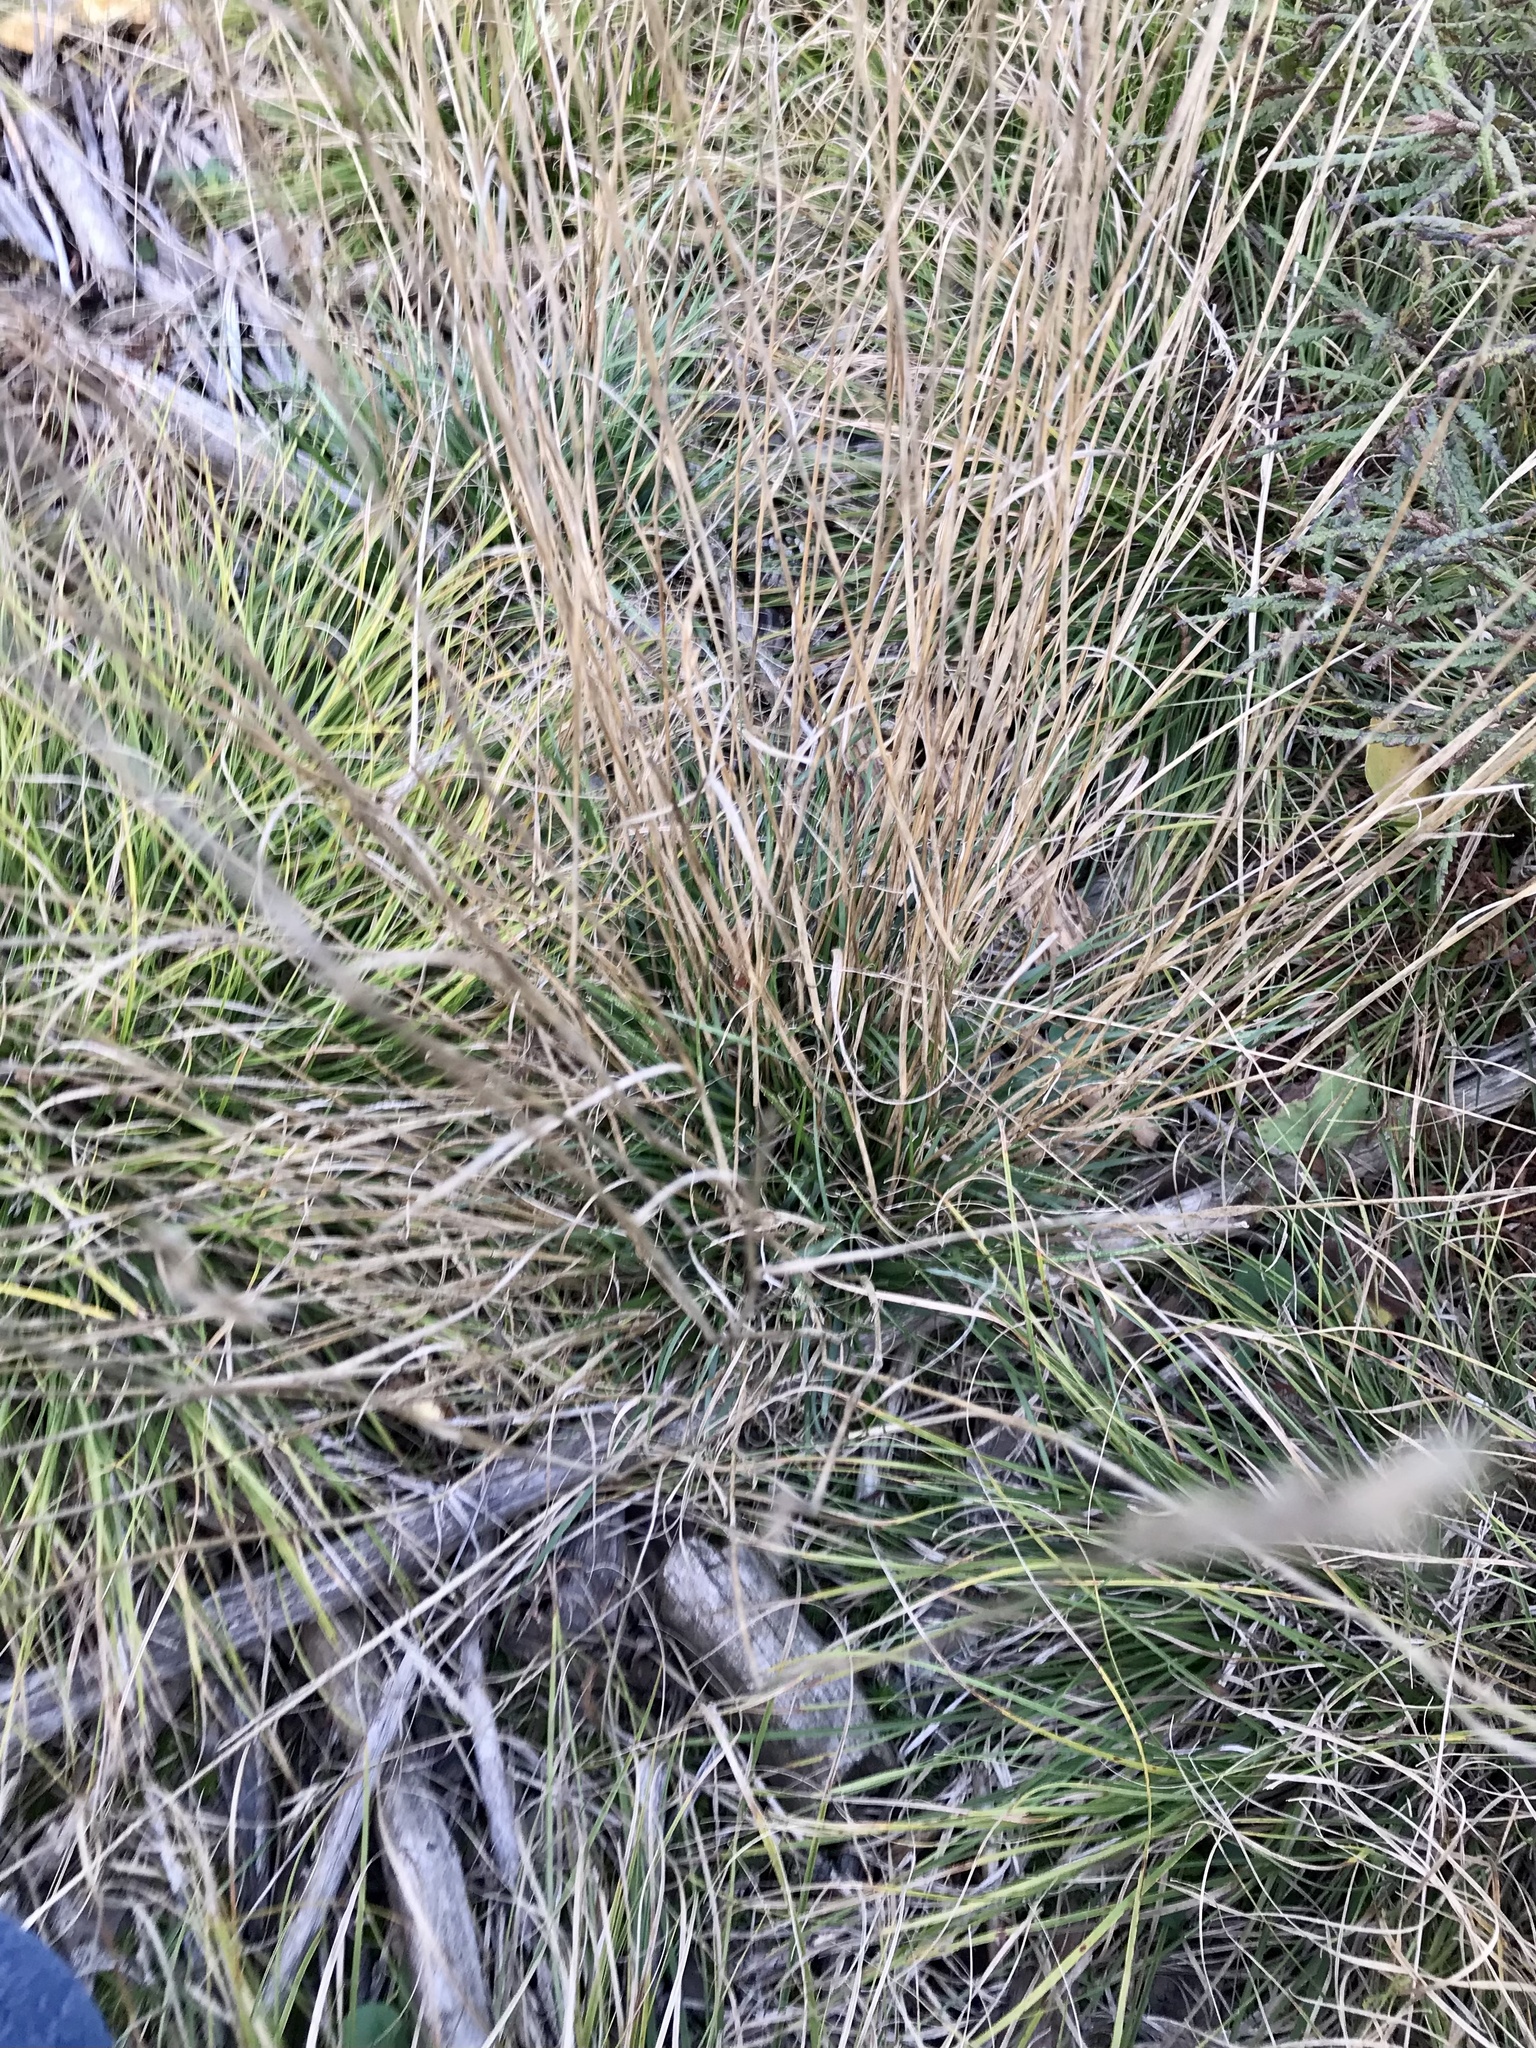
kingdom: Plantae
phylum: Tracheophyta
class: Liliopsida
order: Poales
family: Poaceae
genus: Danthonia
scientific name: Danthonia spicata
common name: Common wild oatgrass
